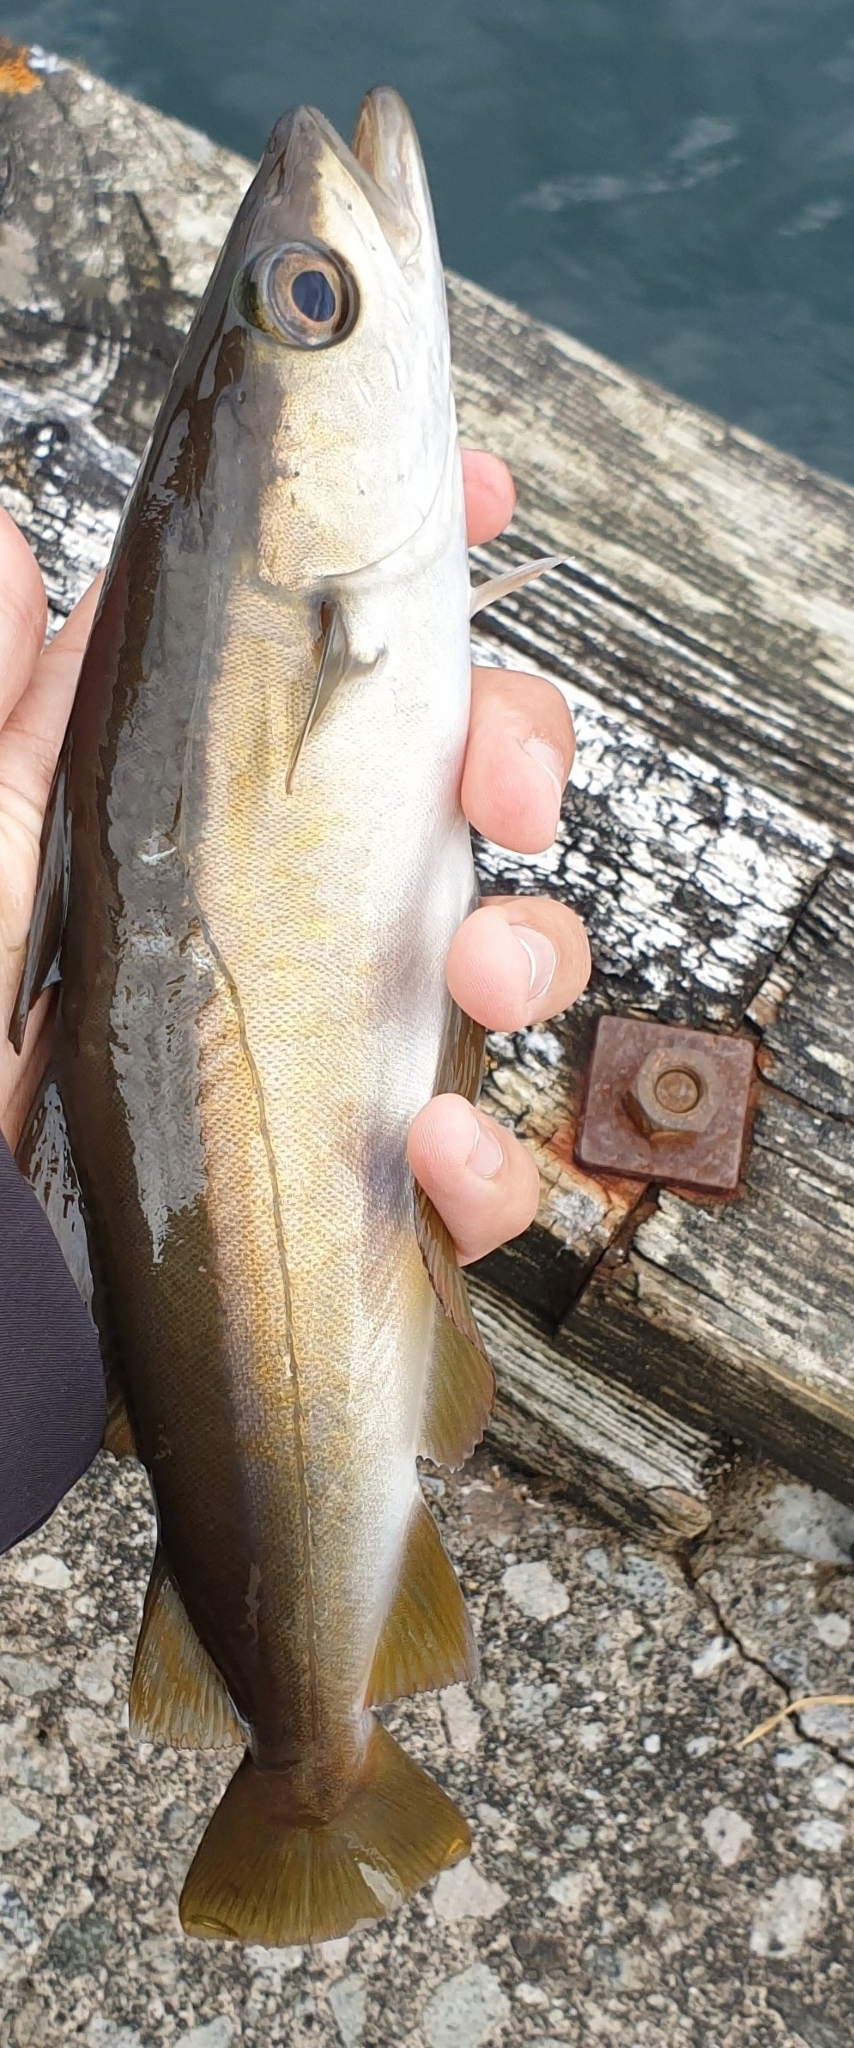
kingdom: Animalia
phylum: Chordata
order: Gadiformes
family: Gadidae
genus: Pollachius
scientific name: Pollachius pollachius
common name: Pollack
